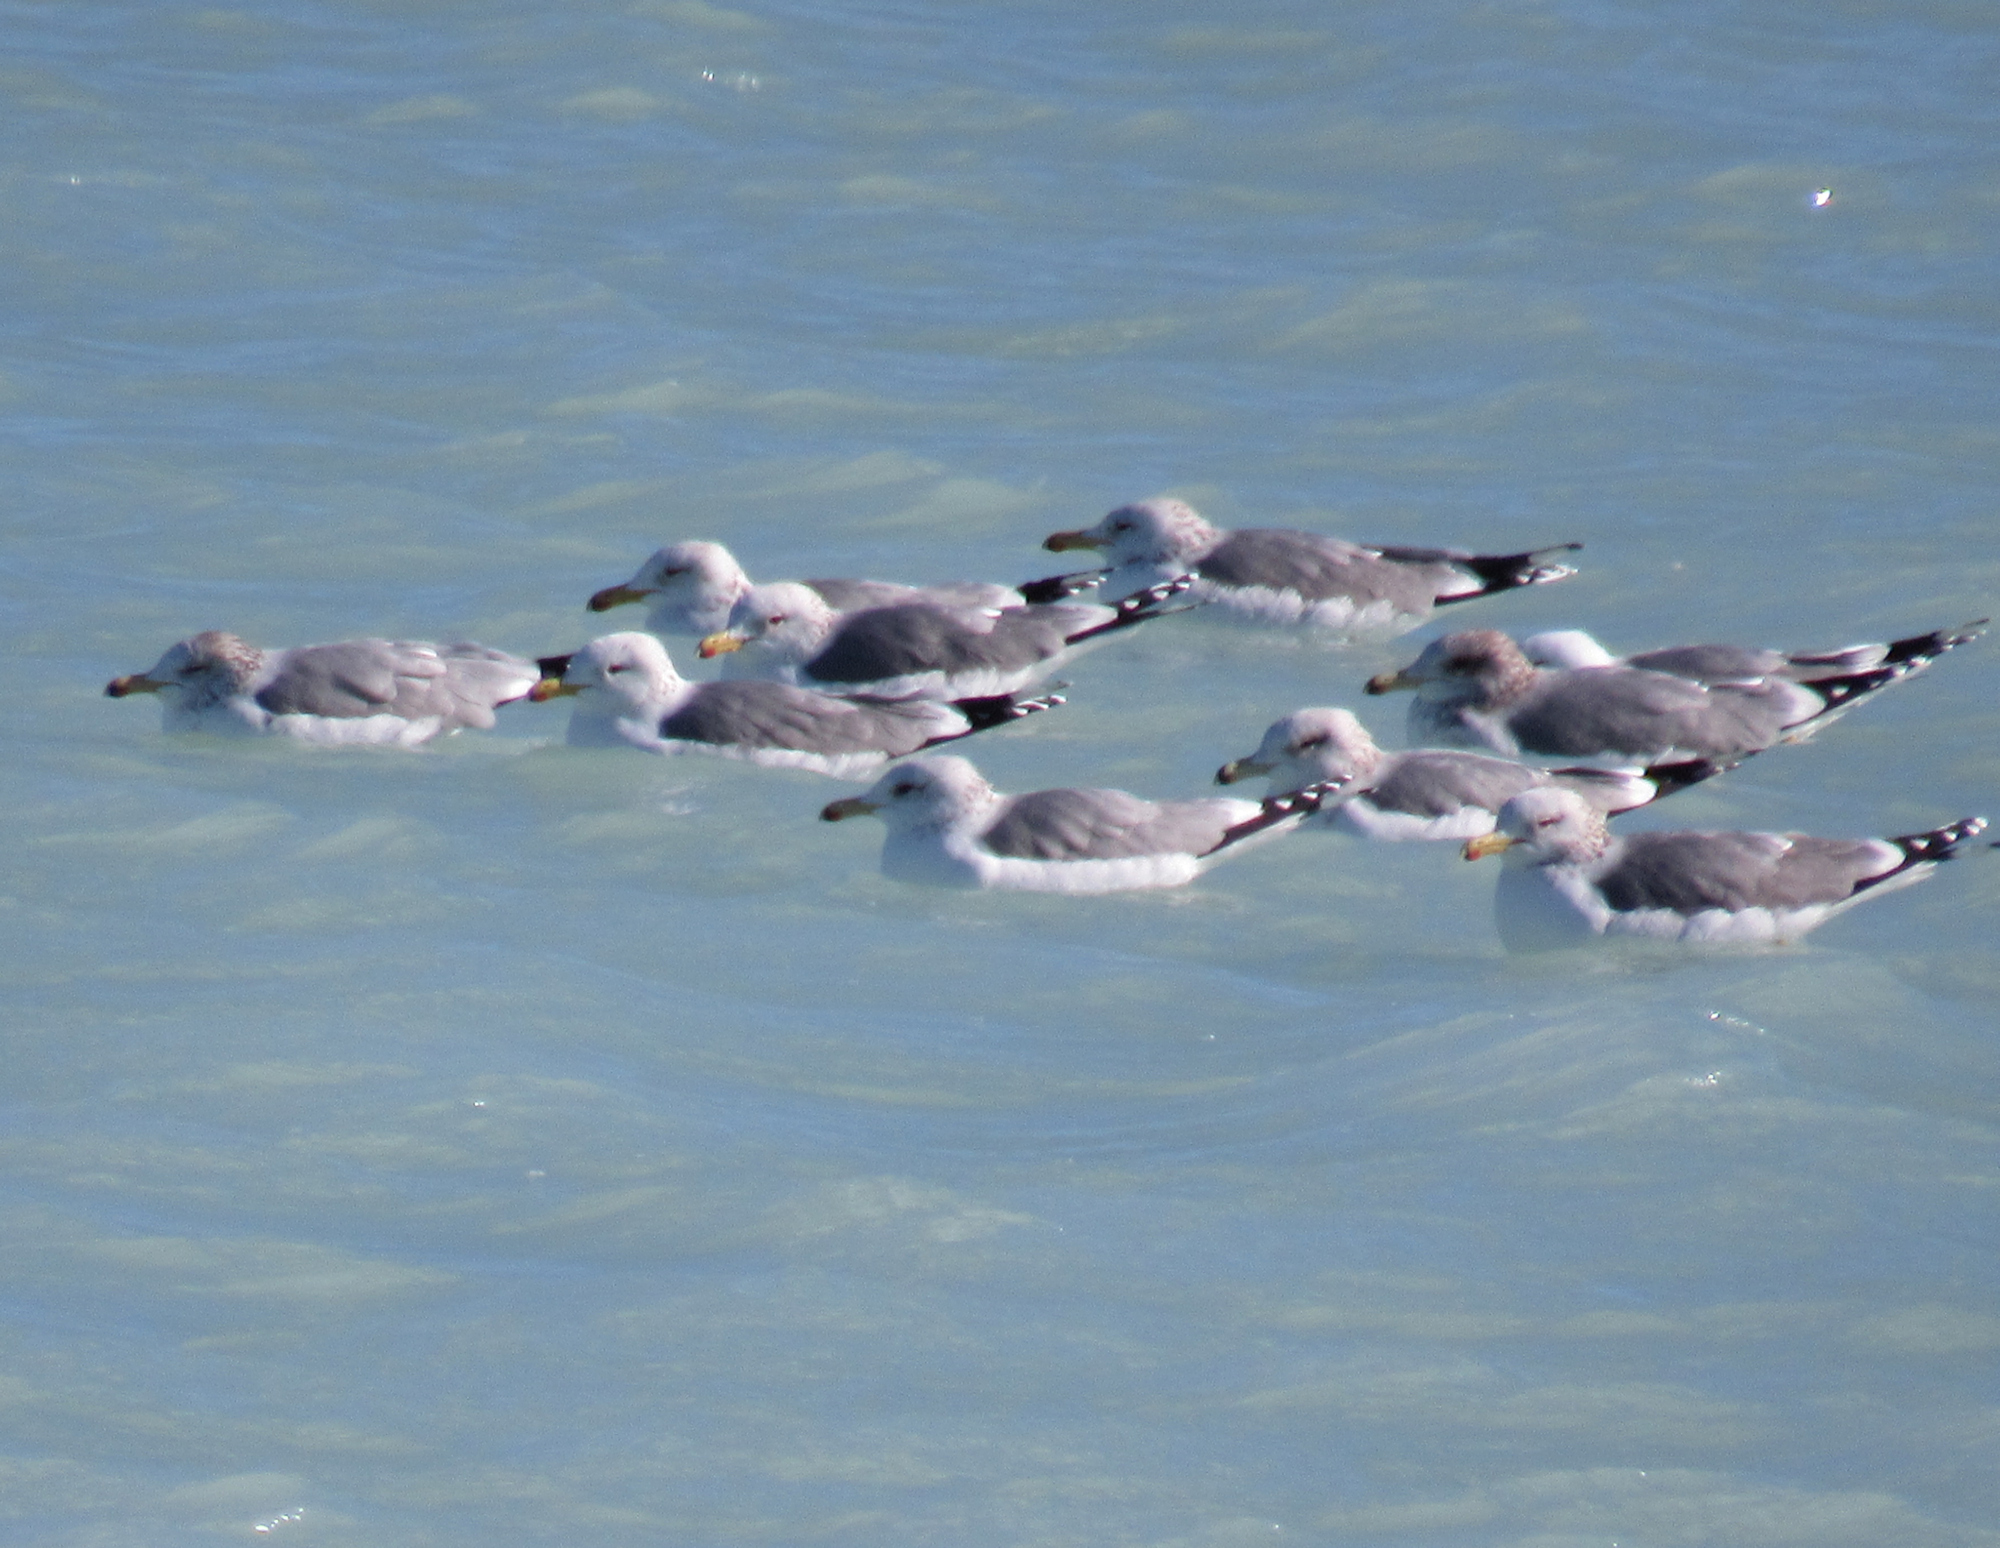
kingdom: Animalia
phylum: Chordata
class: Aves
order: Charadriiformes
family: Laridae
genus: Larus
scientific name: Larus californicus
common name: California gull
